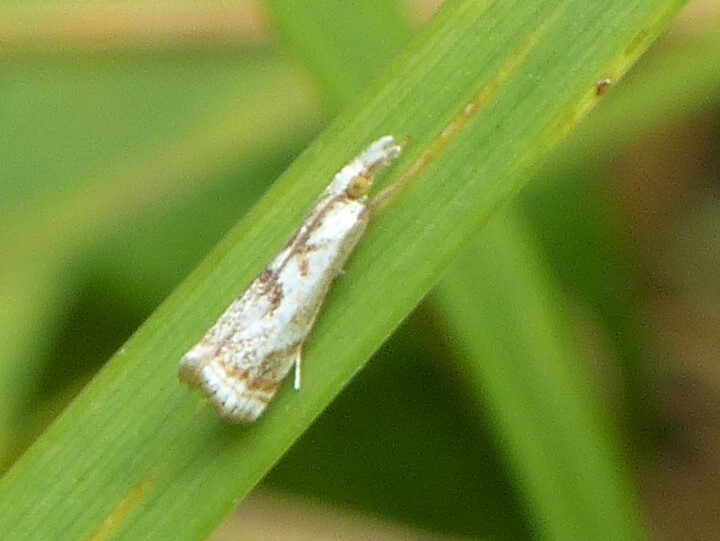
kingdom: Animalia
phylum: Arthropoda
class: Insecta
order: Lepidoptera
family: Crambidae
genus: Microcrambus
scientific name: Microcrambus elegans
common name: Elegant grass-veneer
